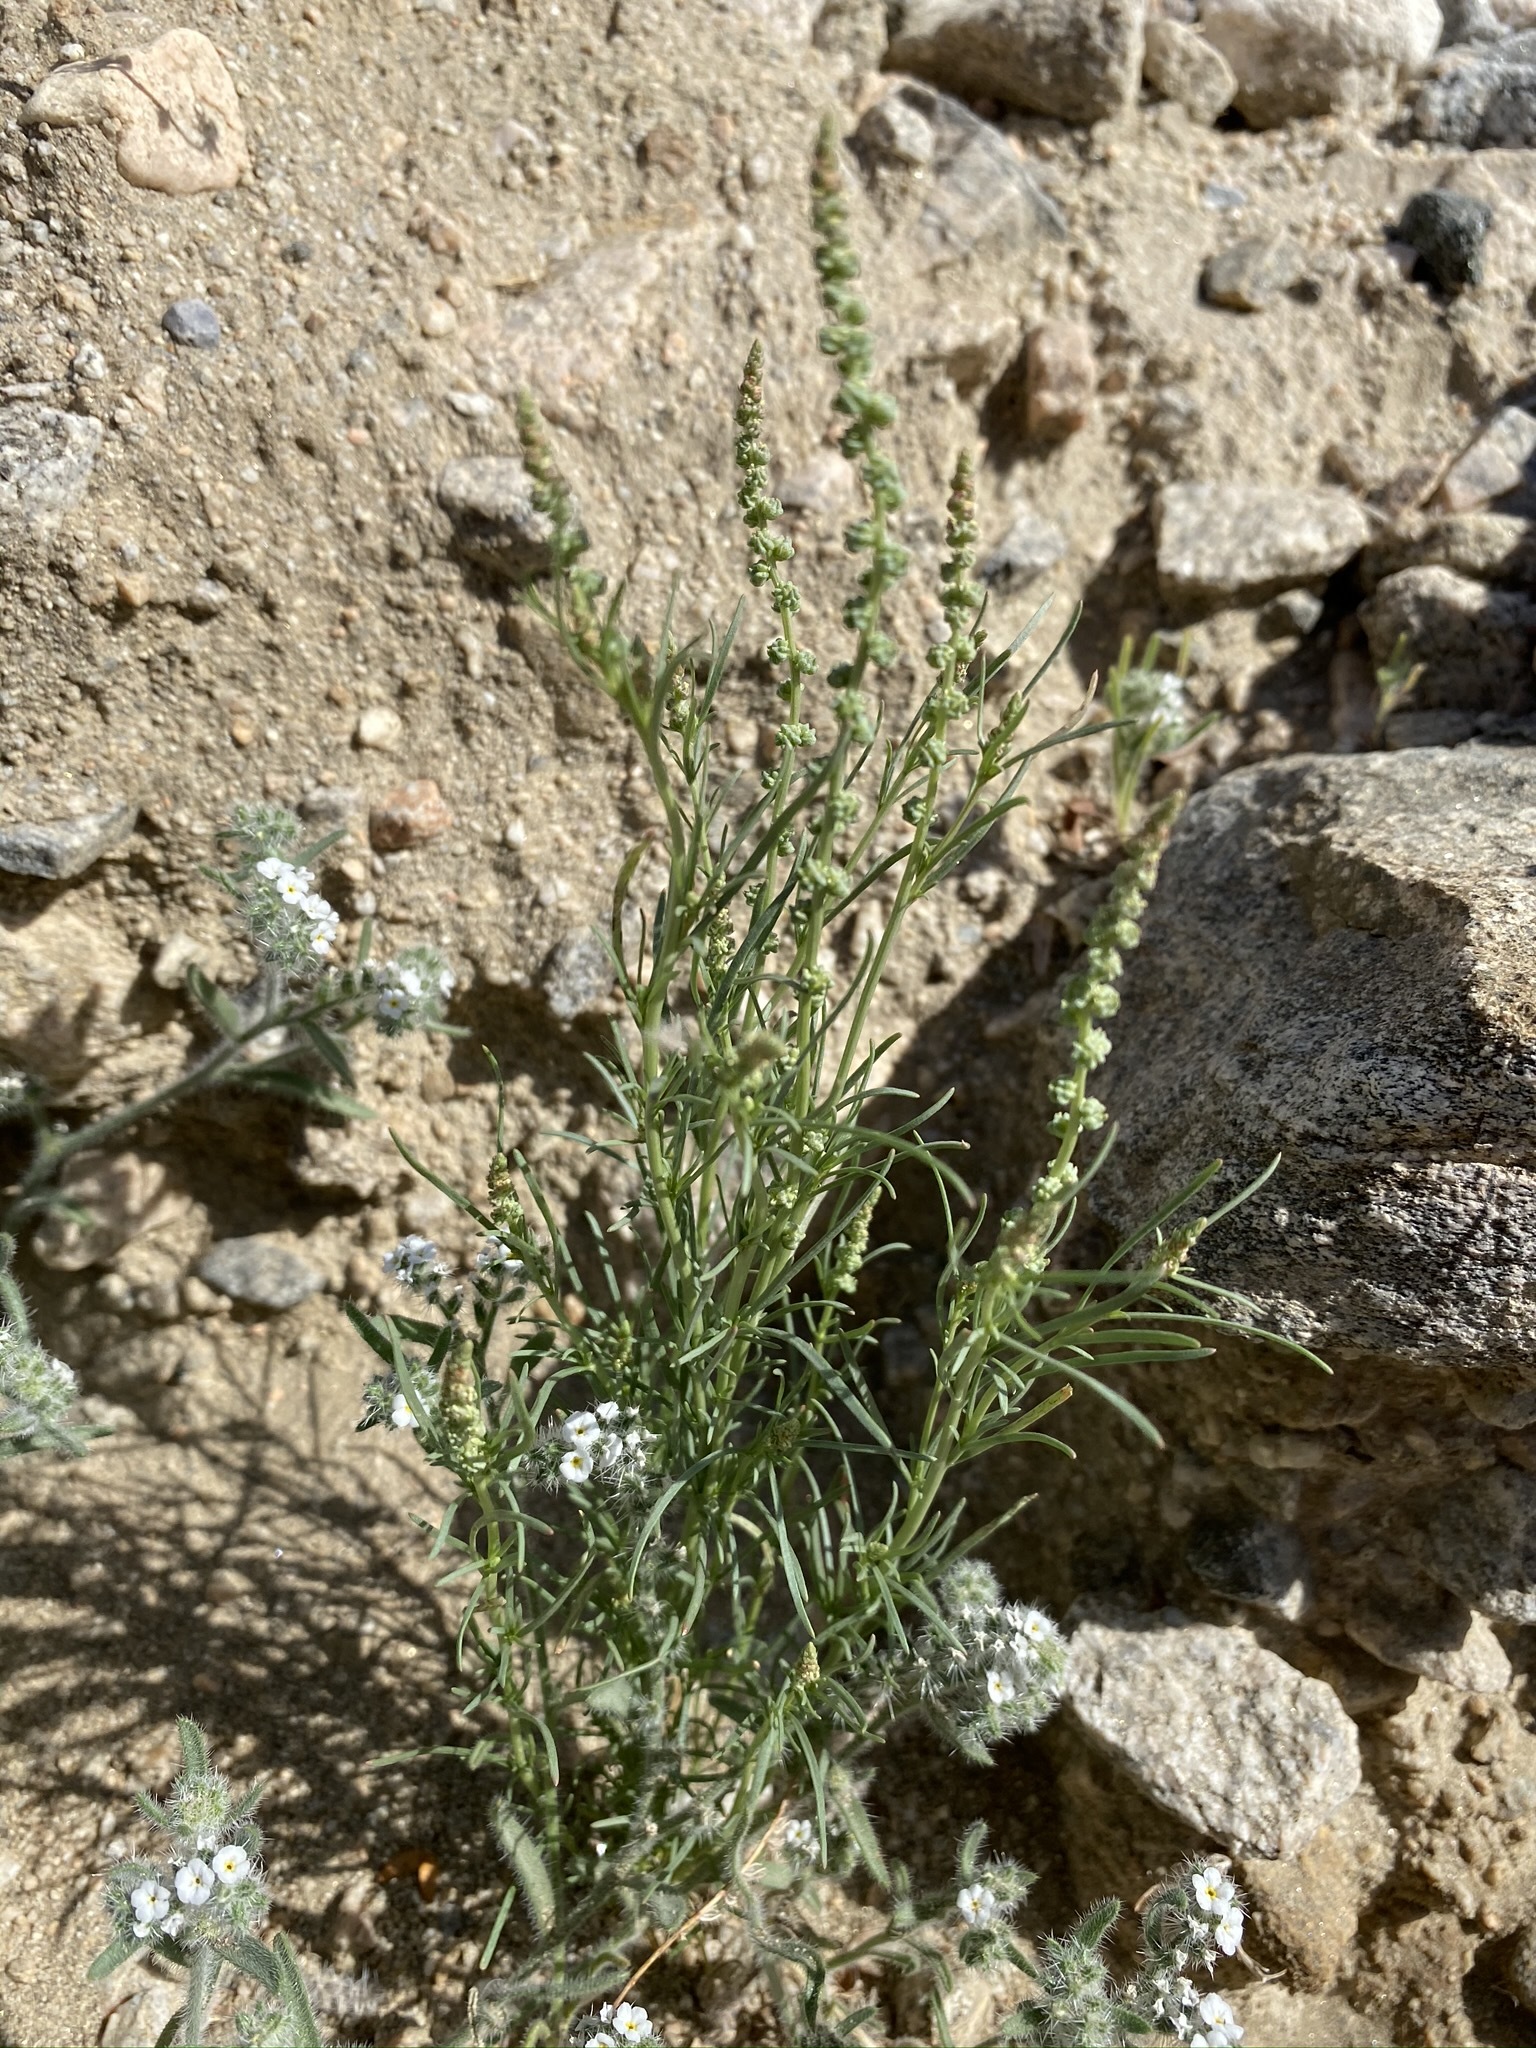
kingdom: Plantae
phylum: Tracheophyta
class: Magnoliopsida
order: Brassicales
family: Resedaceae
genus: Oligomeris
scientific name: Oligomeris linifolia
